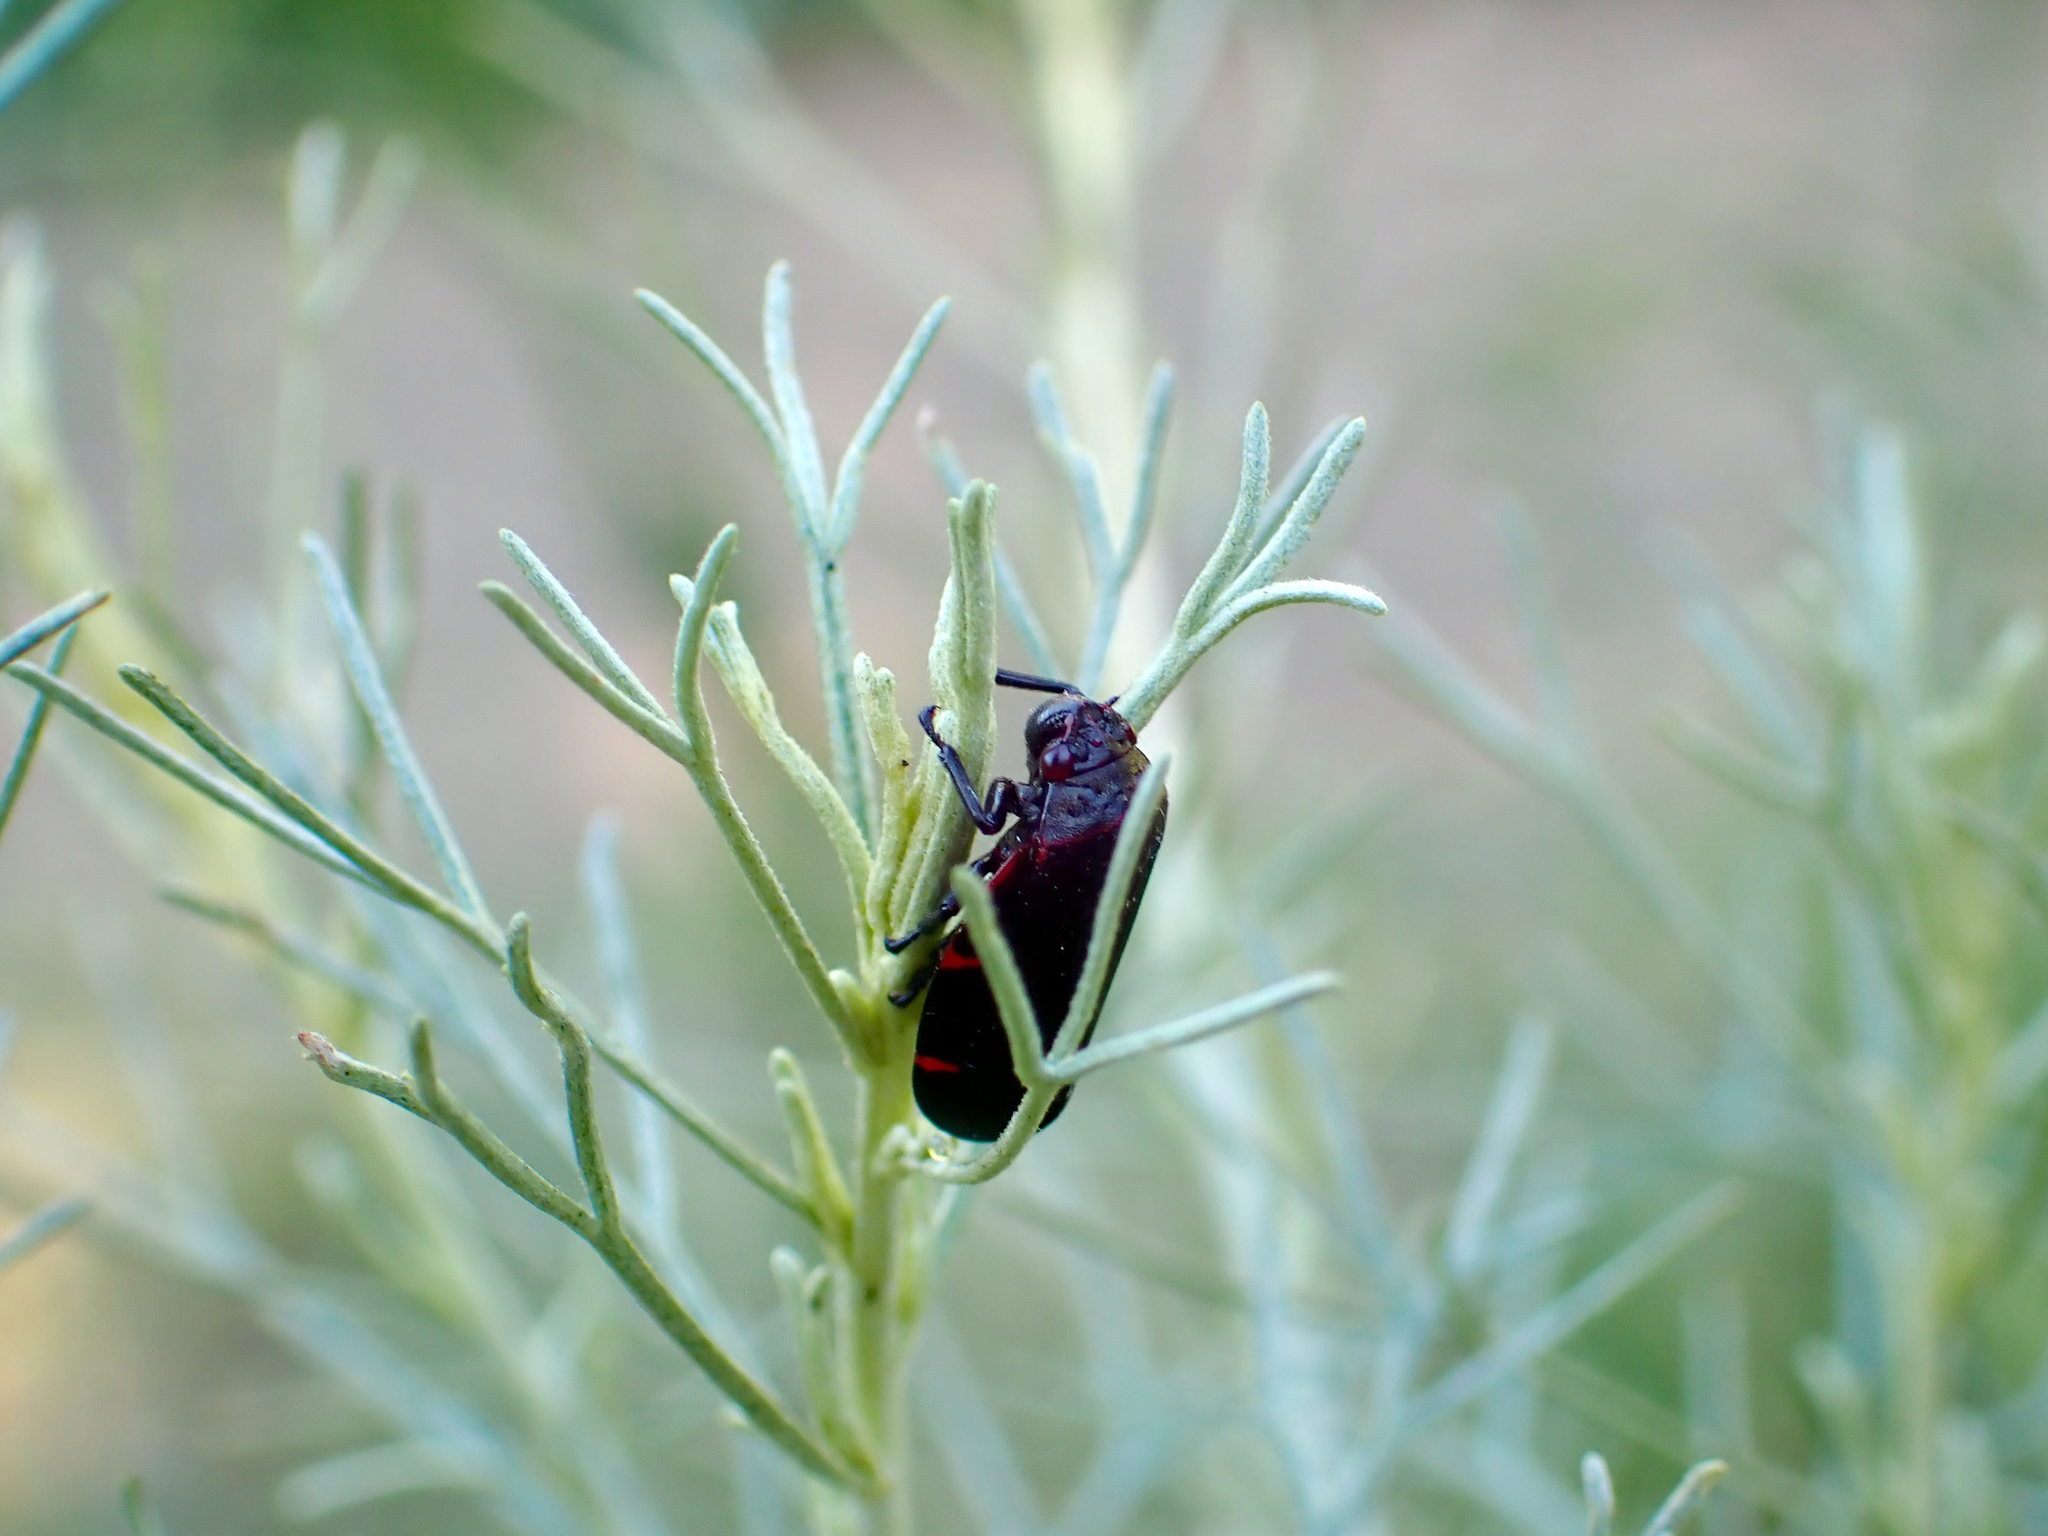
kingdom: Animalia
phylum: Arthropoda
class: Insecta
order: Hemiptera
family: Cercopidae
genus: Prosapia
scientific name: Prosapia
